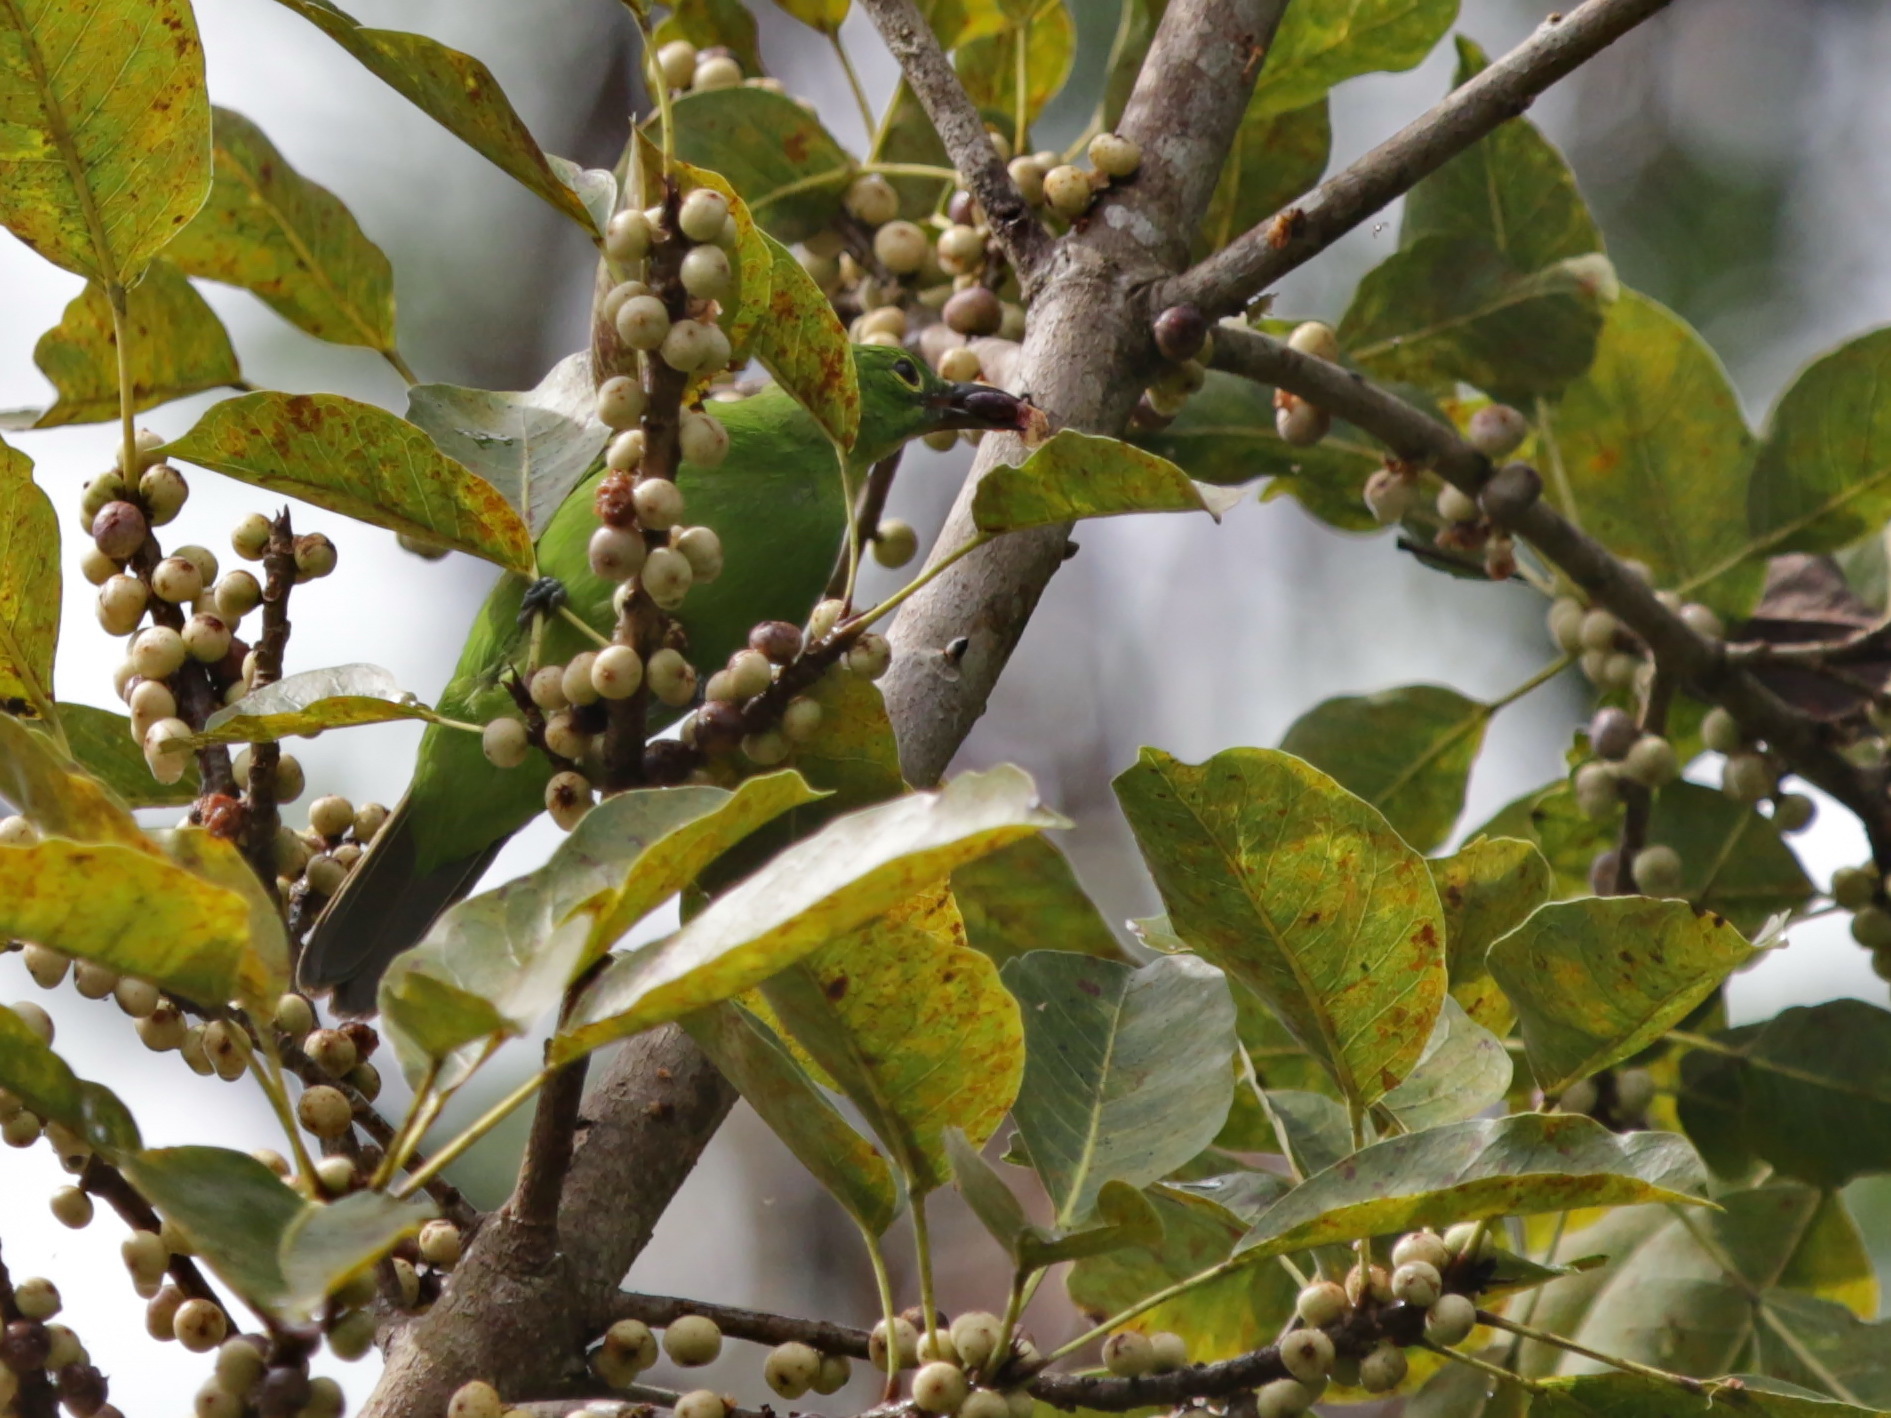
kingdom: Animalia
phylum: Chordata
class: Aves
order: Passeriformes
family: Chloropseidae
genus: Chloropsis
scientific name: Chloropsis sonnerati
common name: Greater green leafbird
